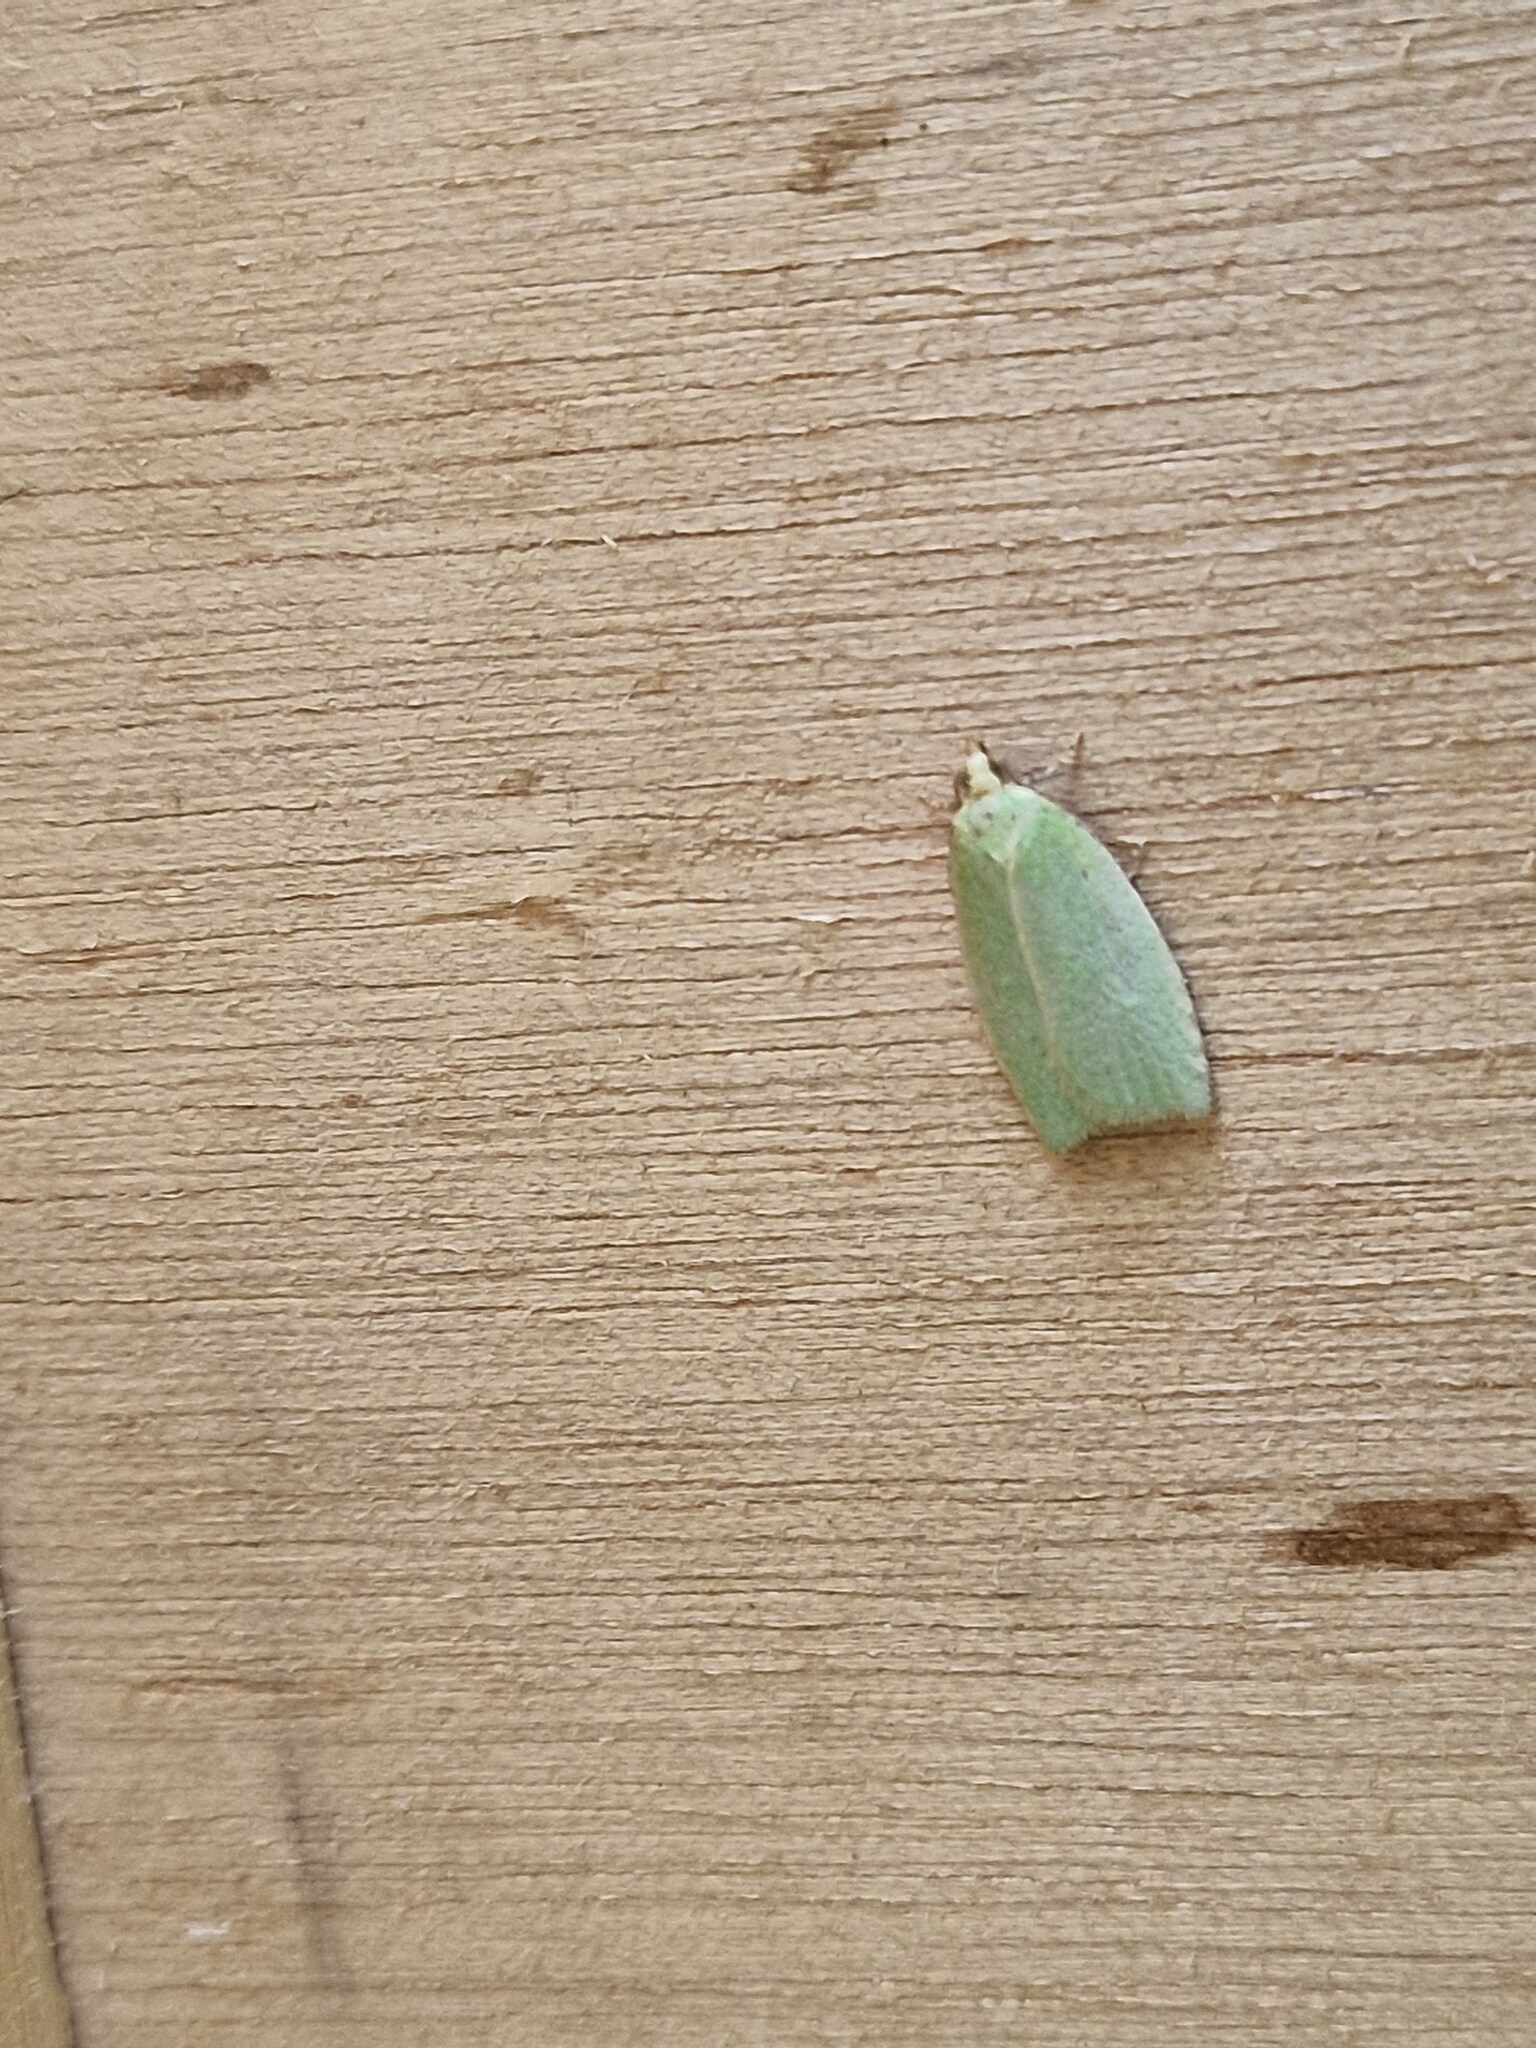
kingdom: Animalia
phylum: Arthropoda
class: Insecta
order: Lepidoptera
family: Tortricidae
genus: Tortrix
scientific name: Tortrix viridana
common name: Green oak tortrix
